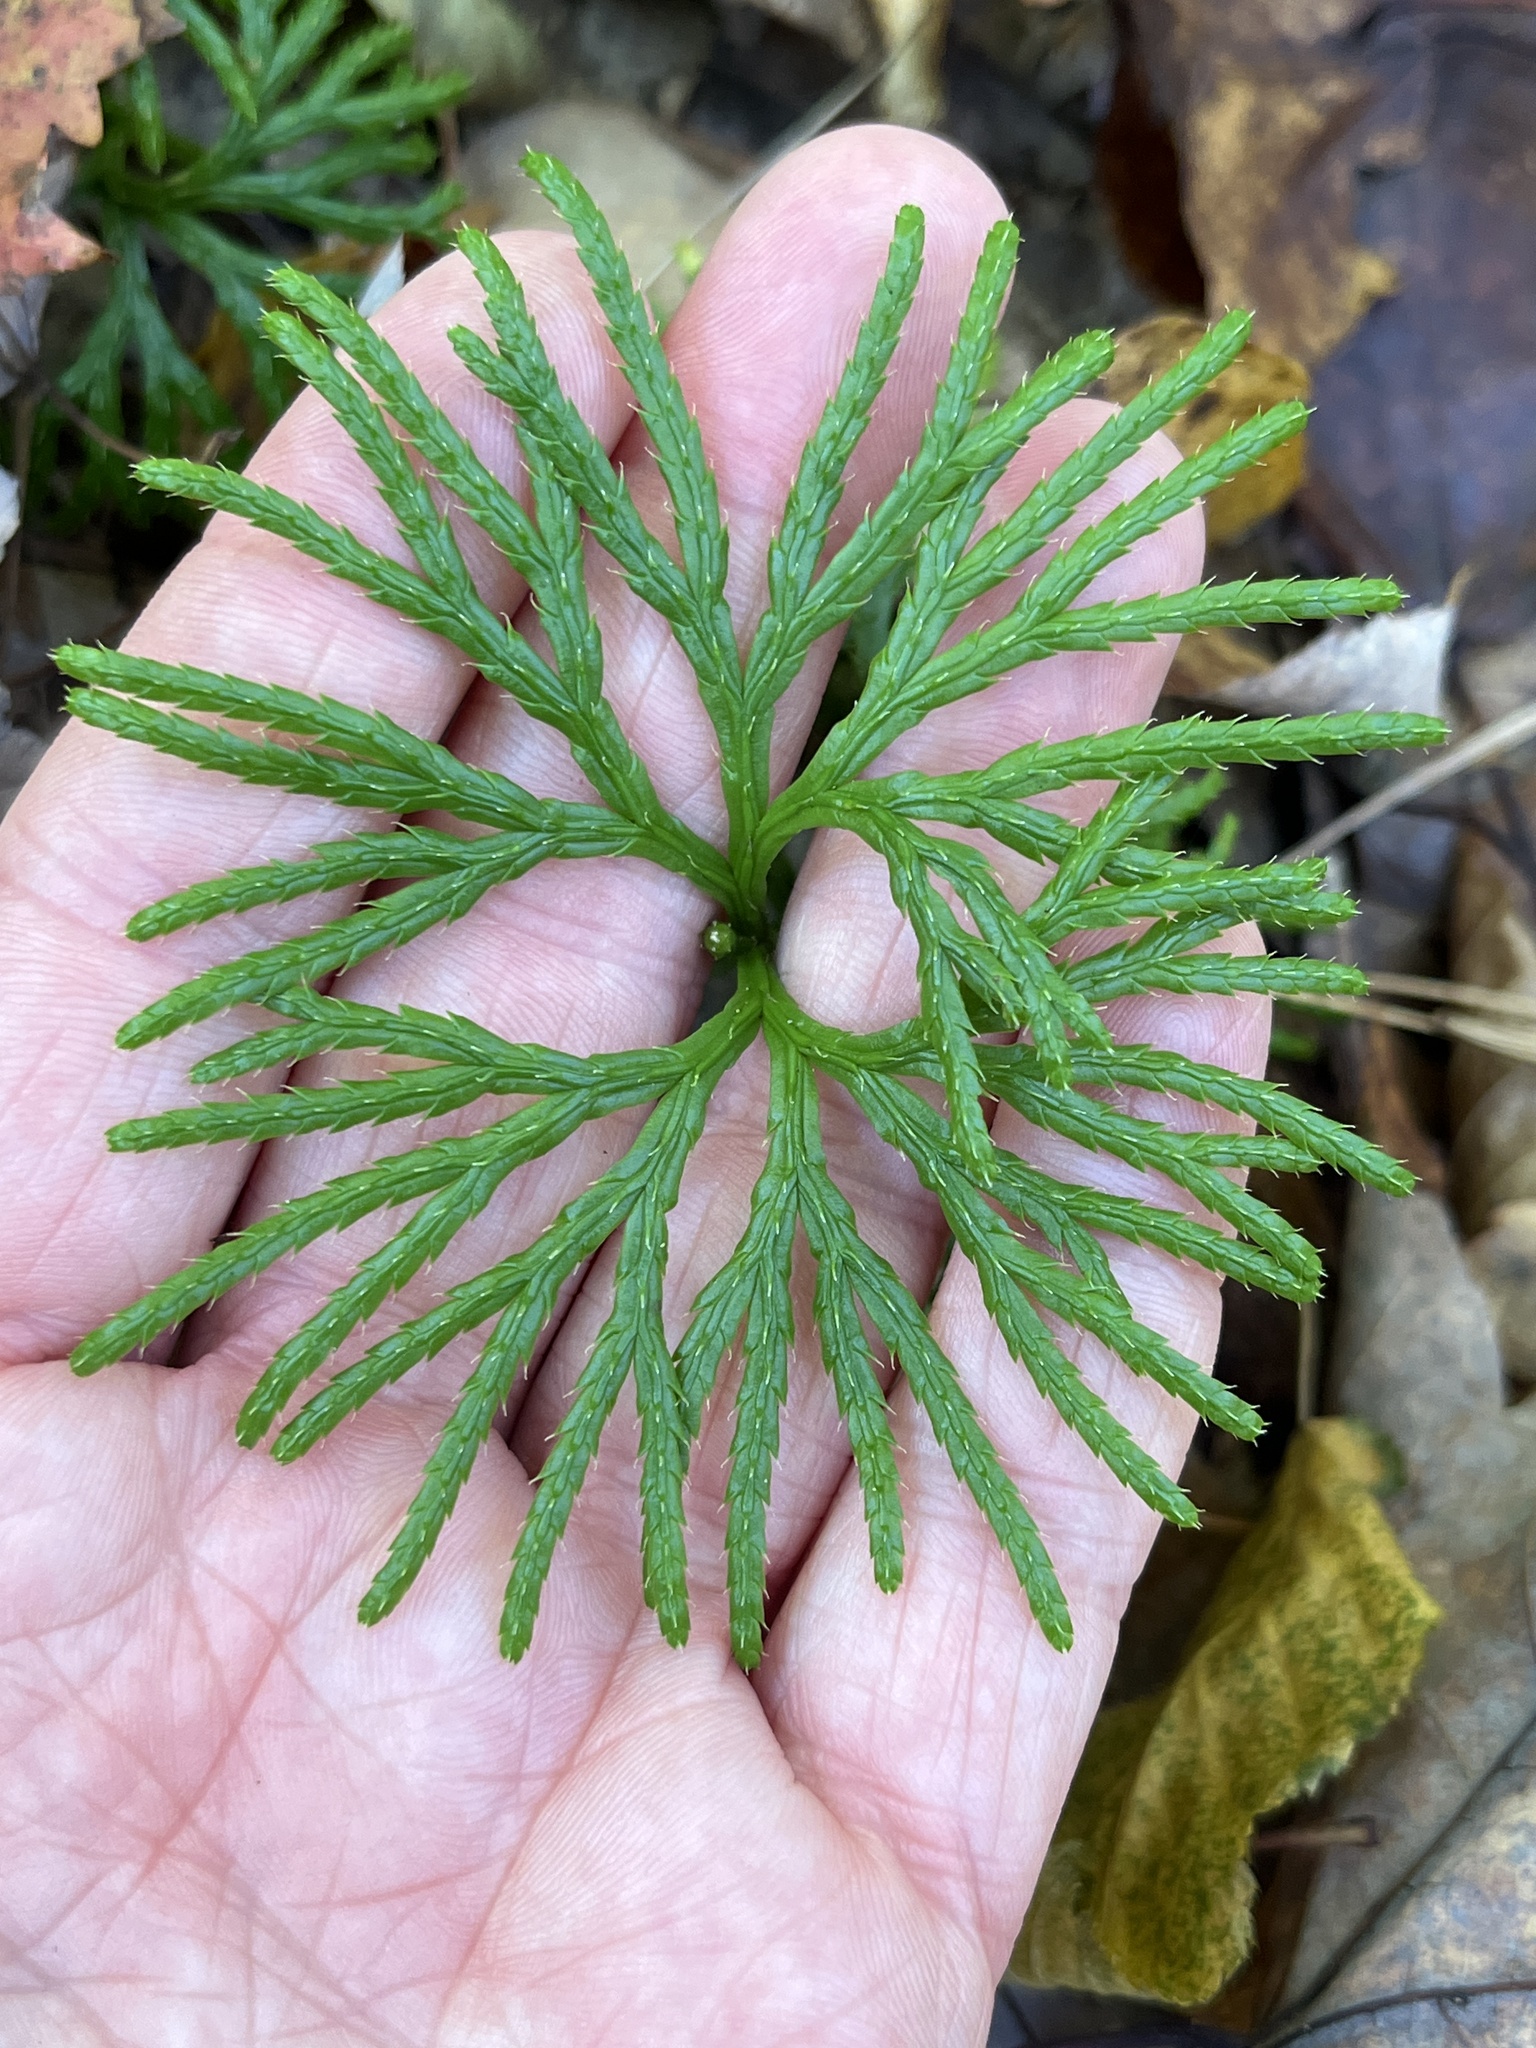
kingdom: Plantae
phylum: Tracheophyta
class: Lycopodiopsida
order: Lycopodiales
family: Lycopodiaceae
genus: Diphasiastrum
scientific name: Diphasiastrum digitatum
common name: Southern running-pine
